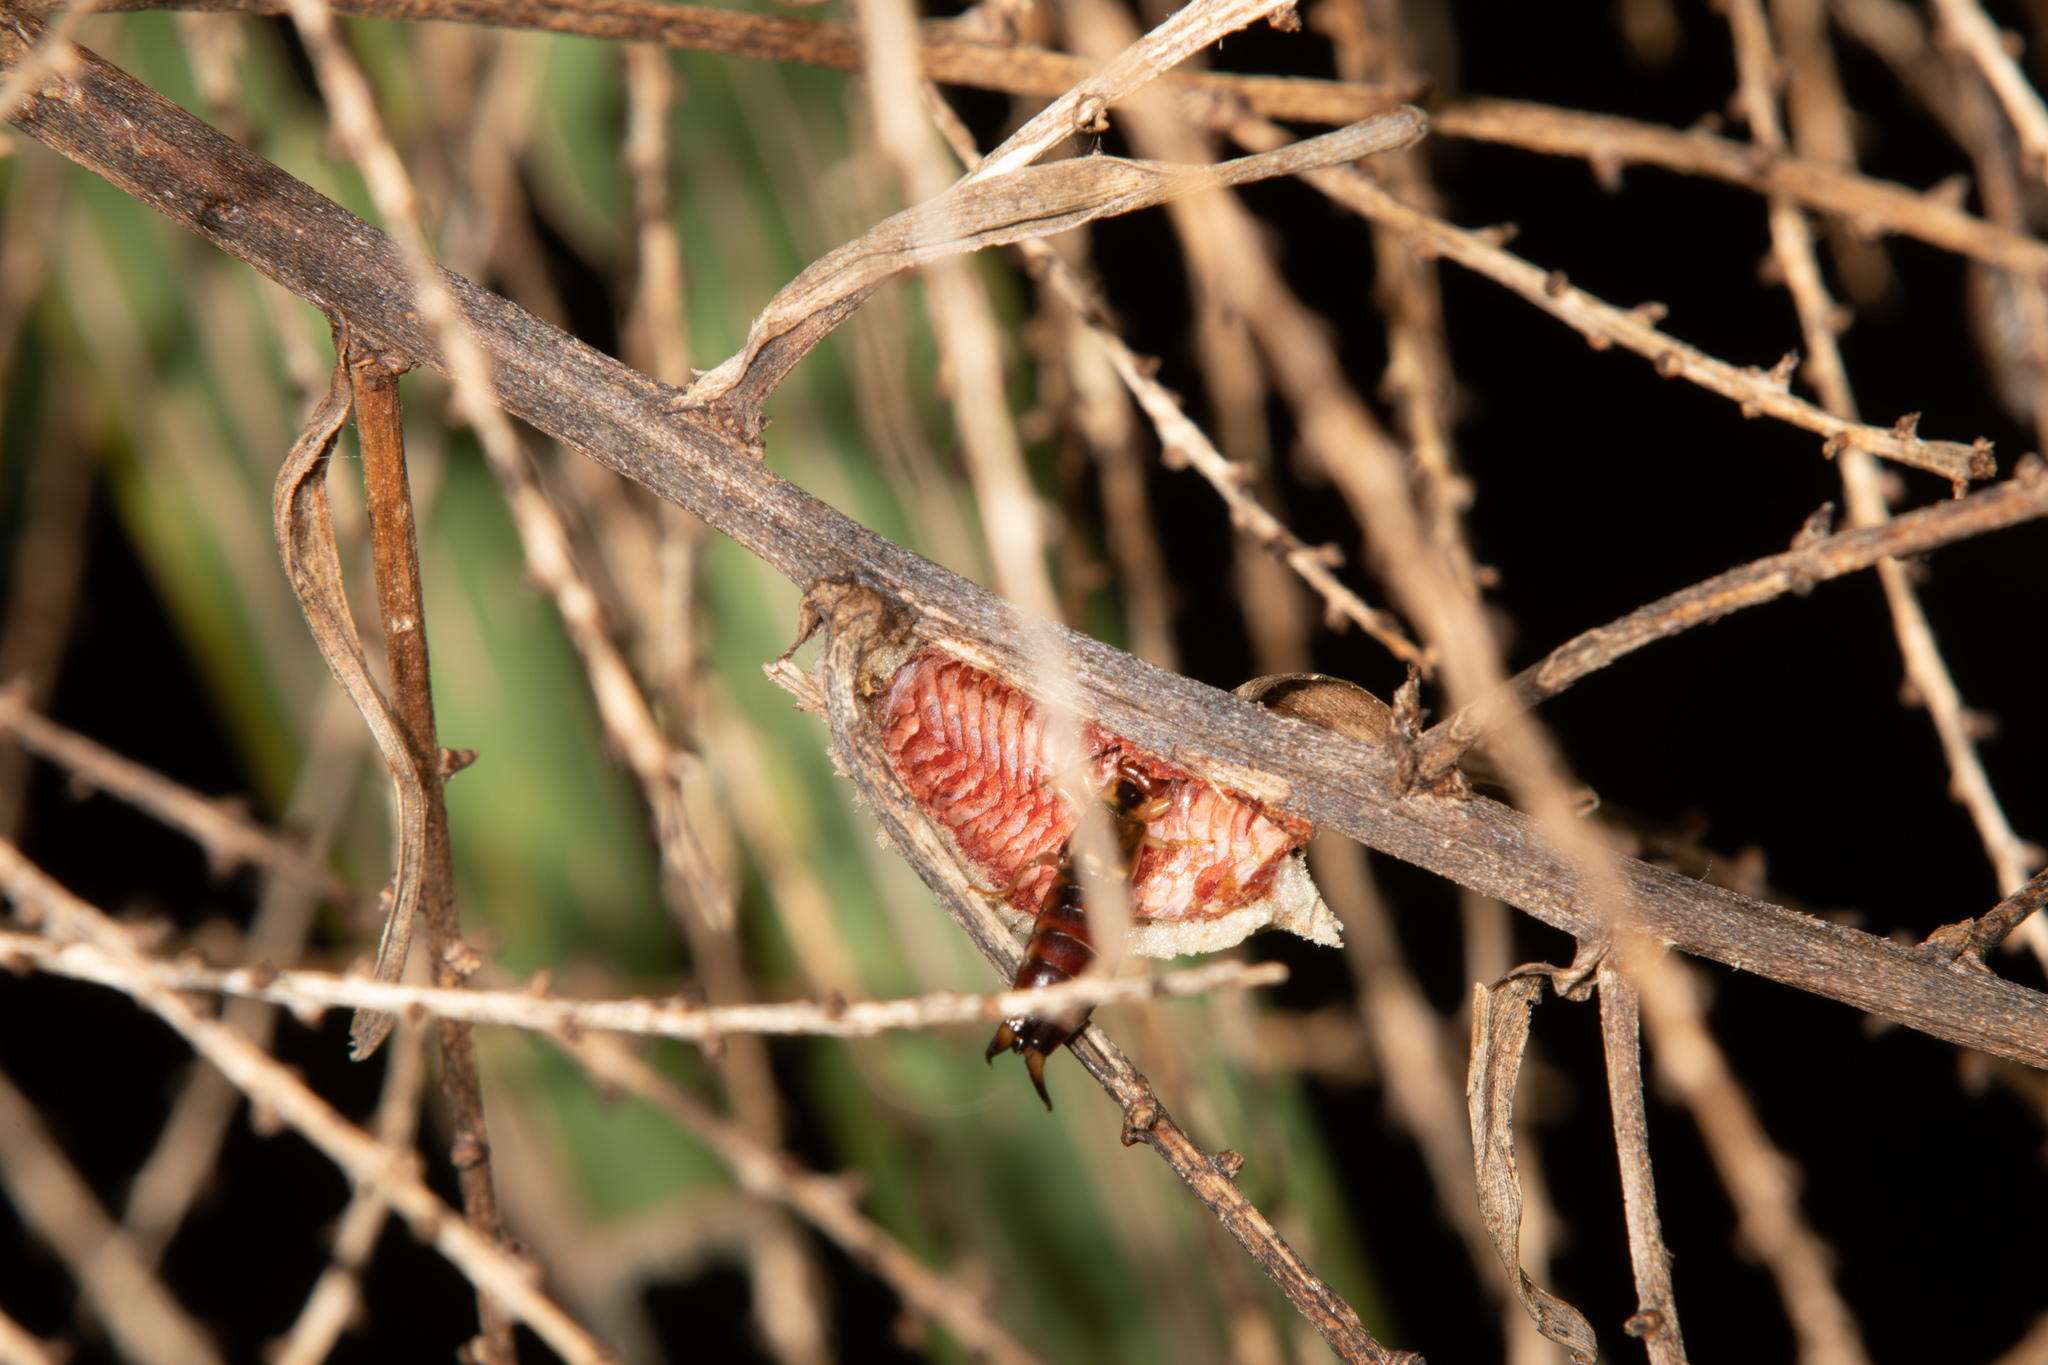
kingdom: Animalia
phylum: Arthropoda
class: Insecta
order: Dermaptera
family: Forficulidae
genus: Forficula
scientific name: Forficula
